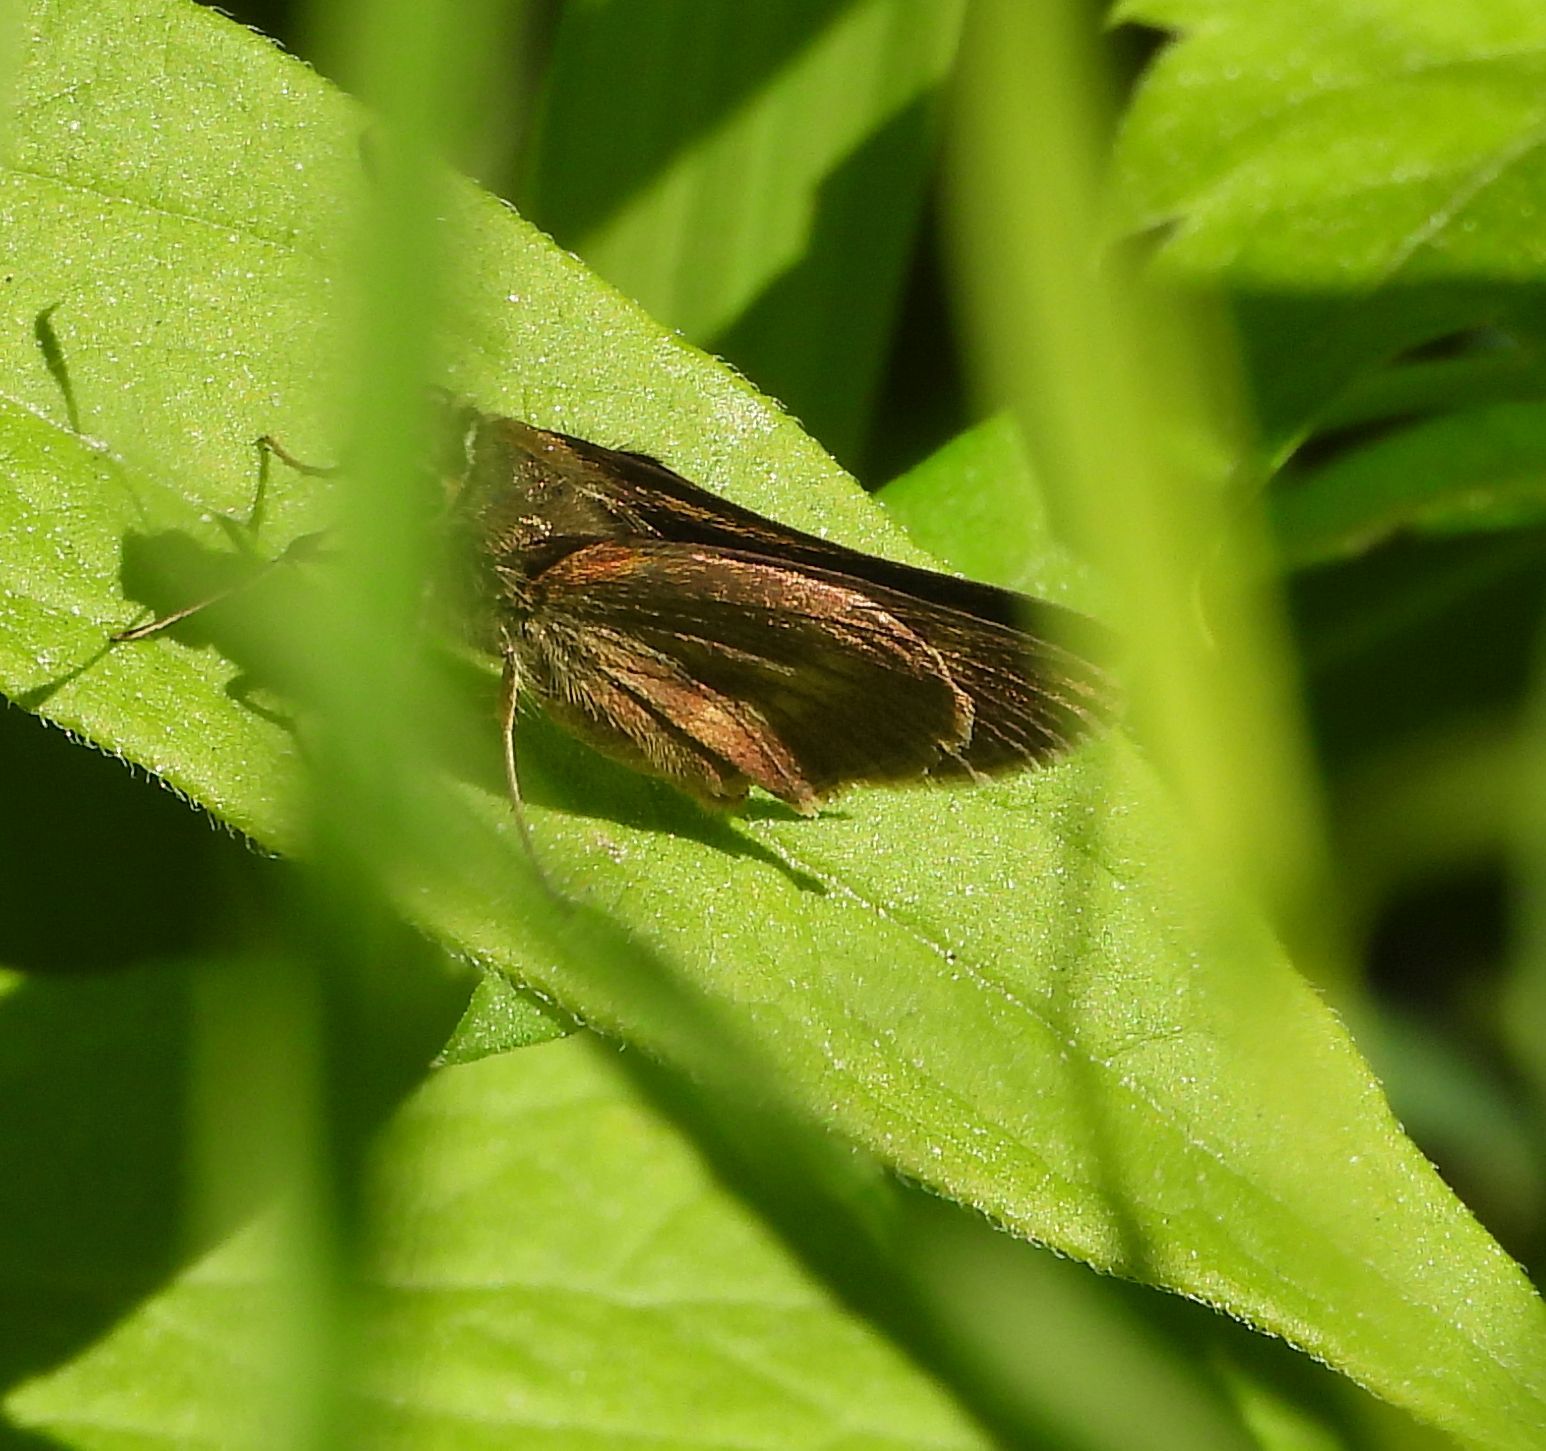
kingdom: Animalia
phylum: Arthropoda
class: Insecta
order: Lepidoptera
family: Hesperiidae
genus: Polites
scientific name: Polites egeremet
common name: Northern broken-dash
